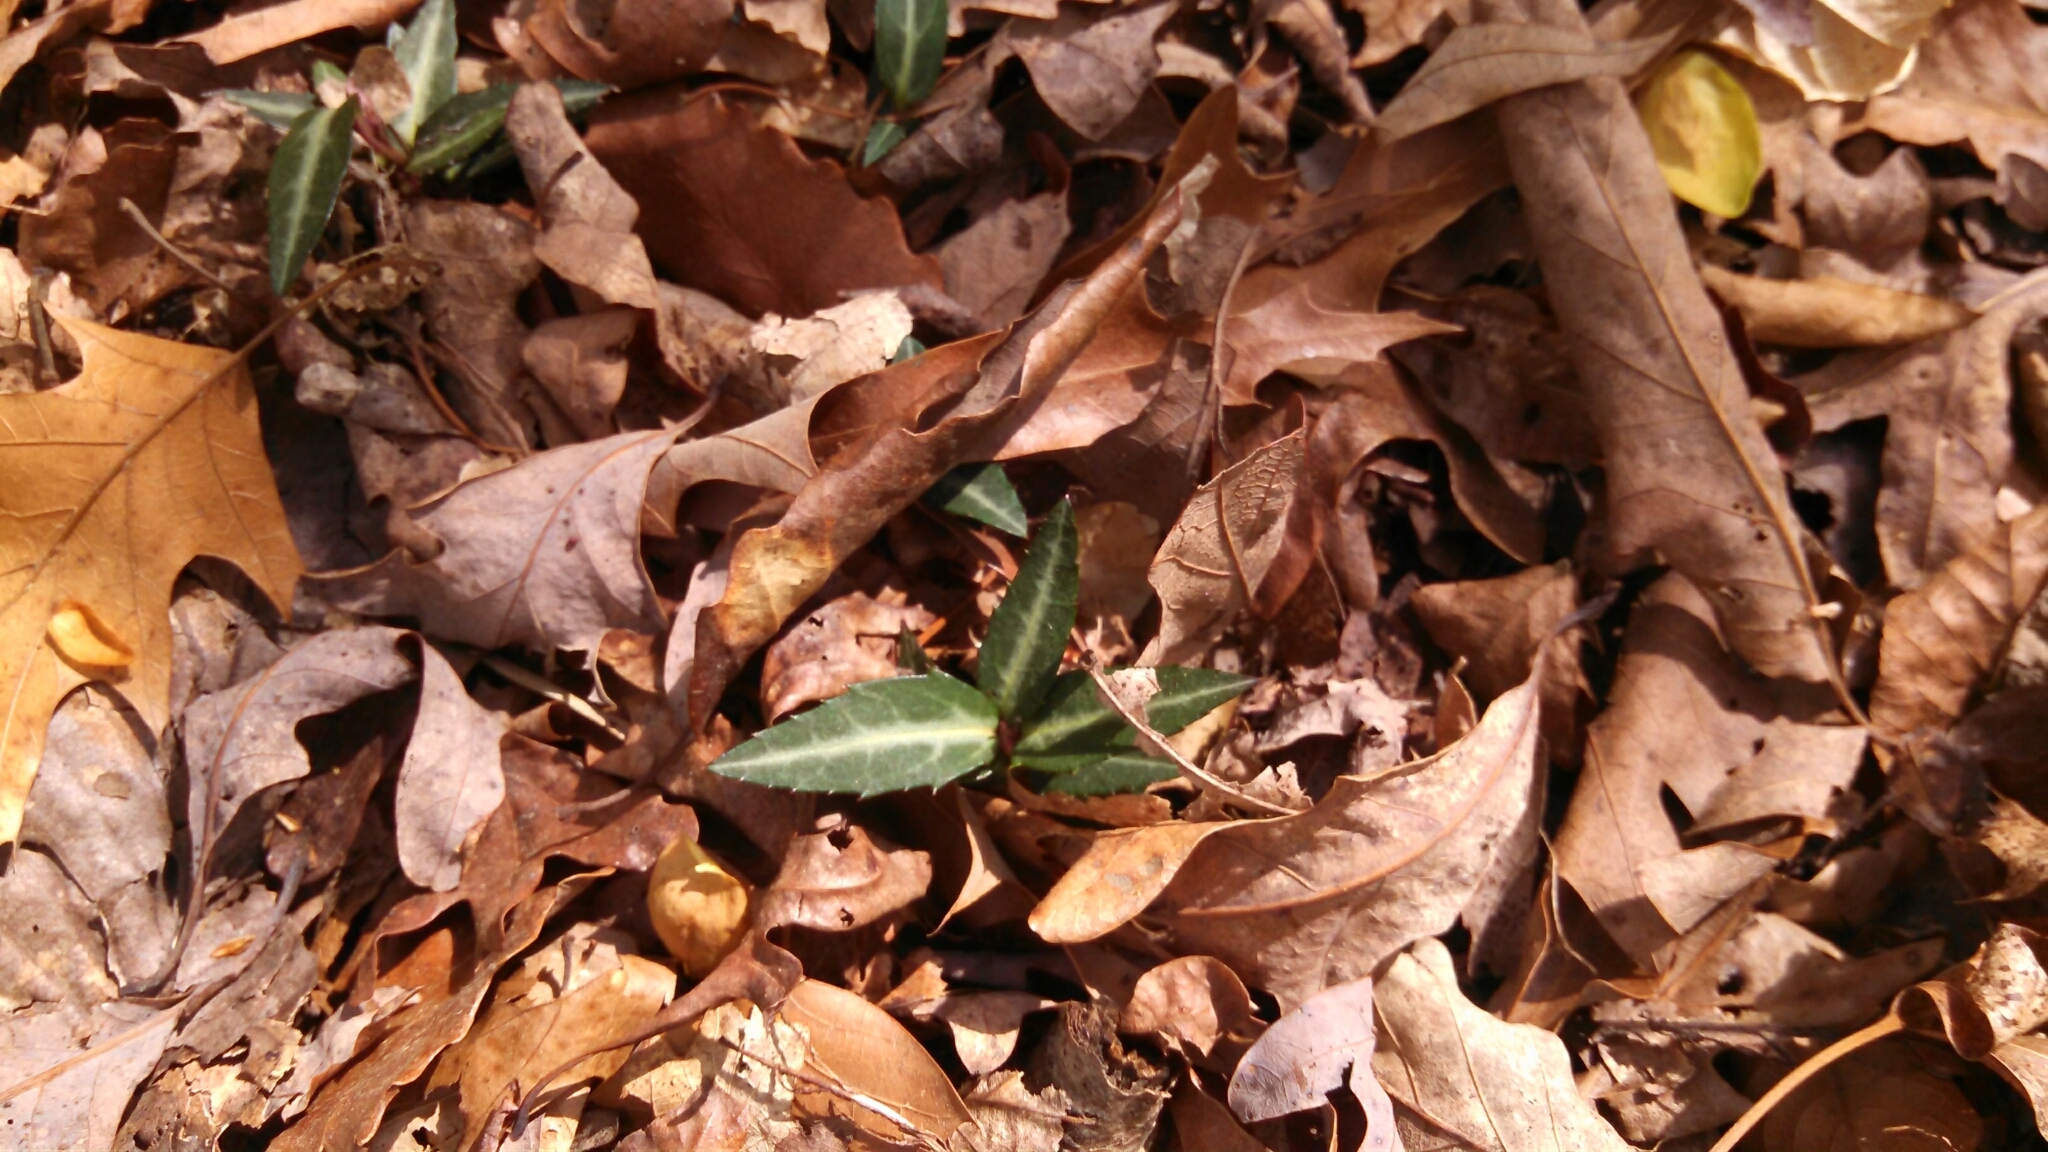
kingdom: Plantae
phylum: Tracheophyta
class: Magnoliopsida
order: Ericales
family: Ericaceae
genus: Chimaphila
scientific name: Chimaphila maculata
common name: Spotted pipsissewa
